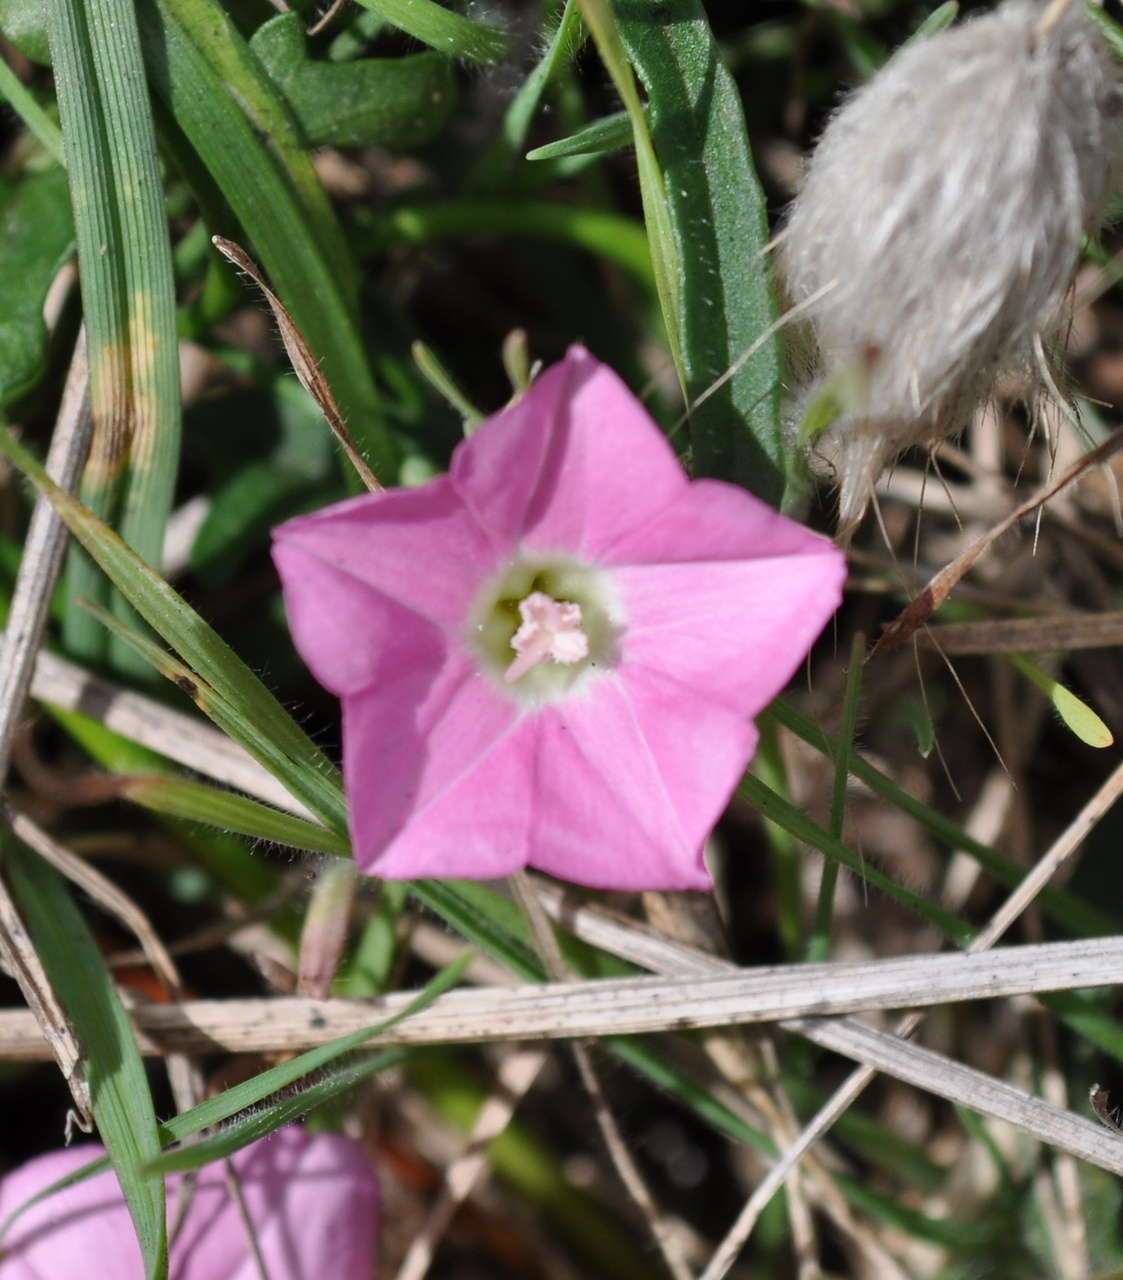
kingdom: Plantae
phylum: Tracheophyta
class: Magnoliopsida
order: Solanales
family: Convolvulaceae
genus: Convolvulus
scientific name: Convolvulus angustissimus
